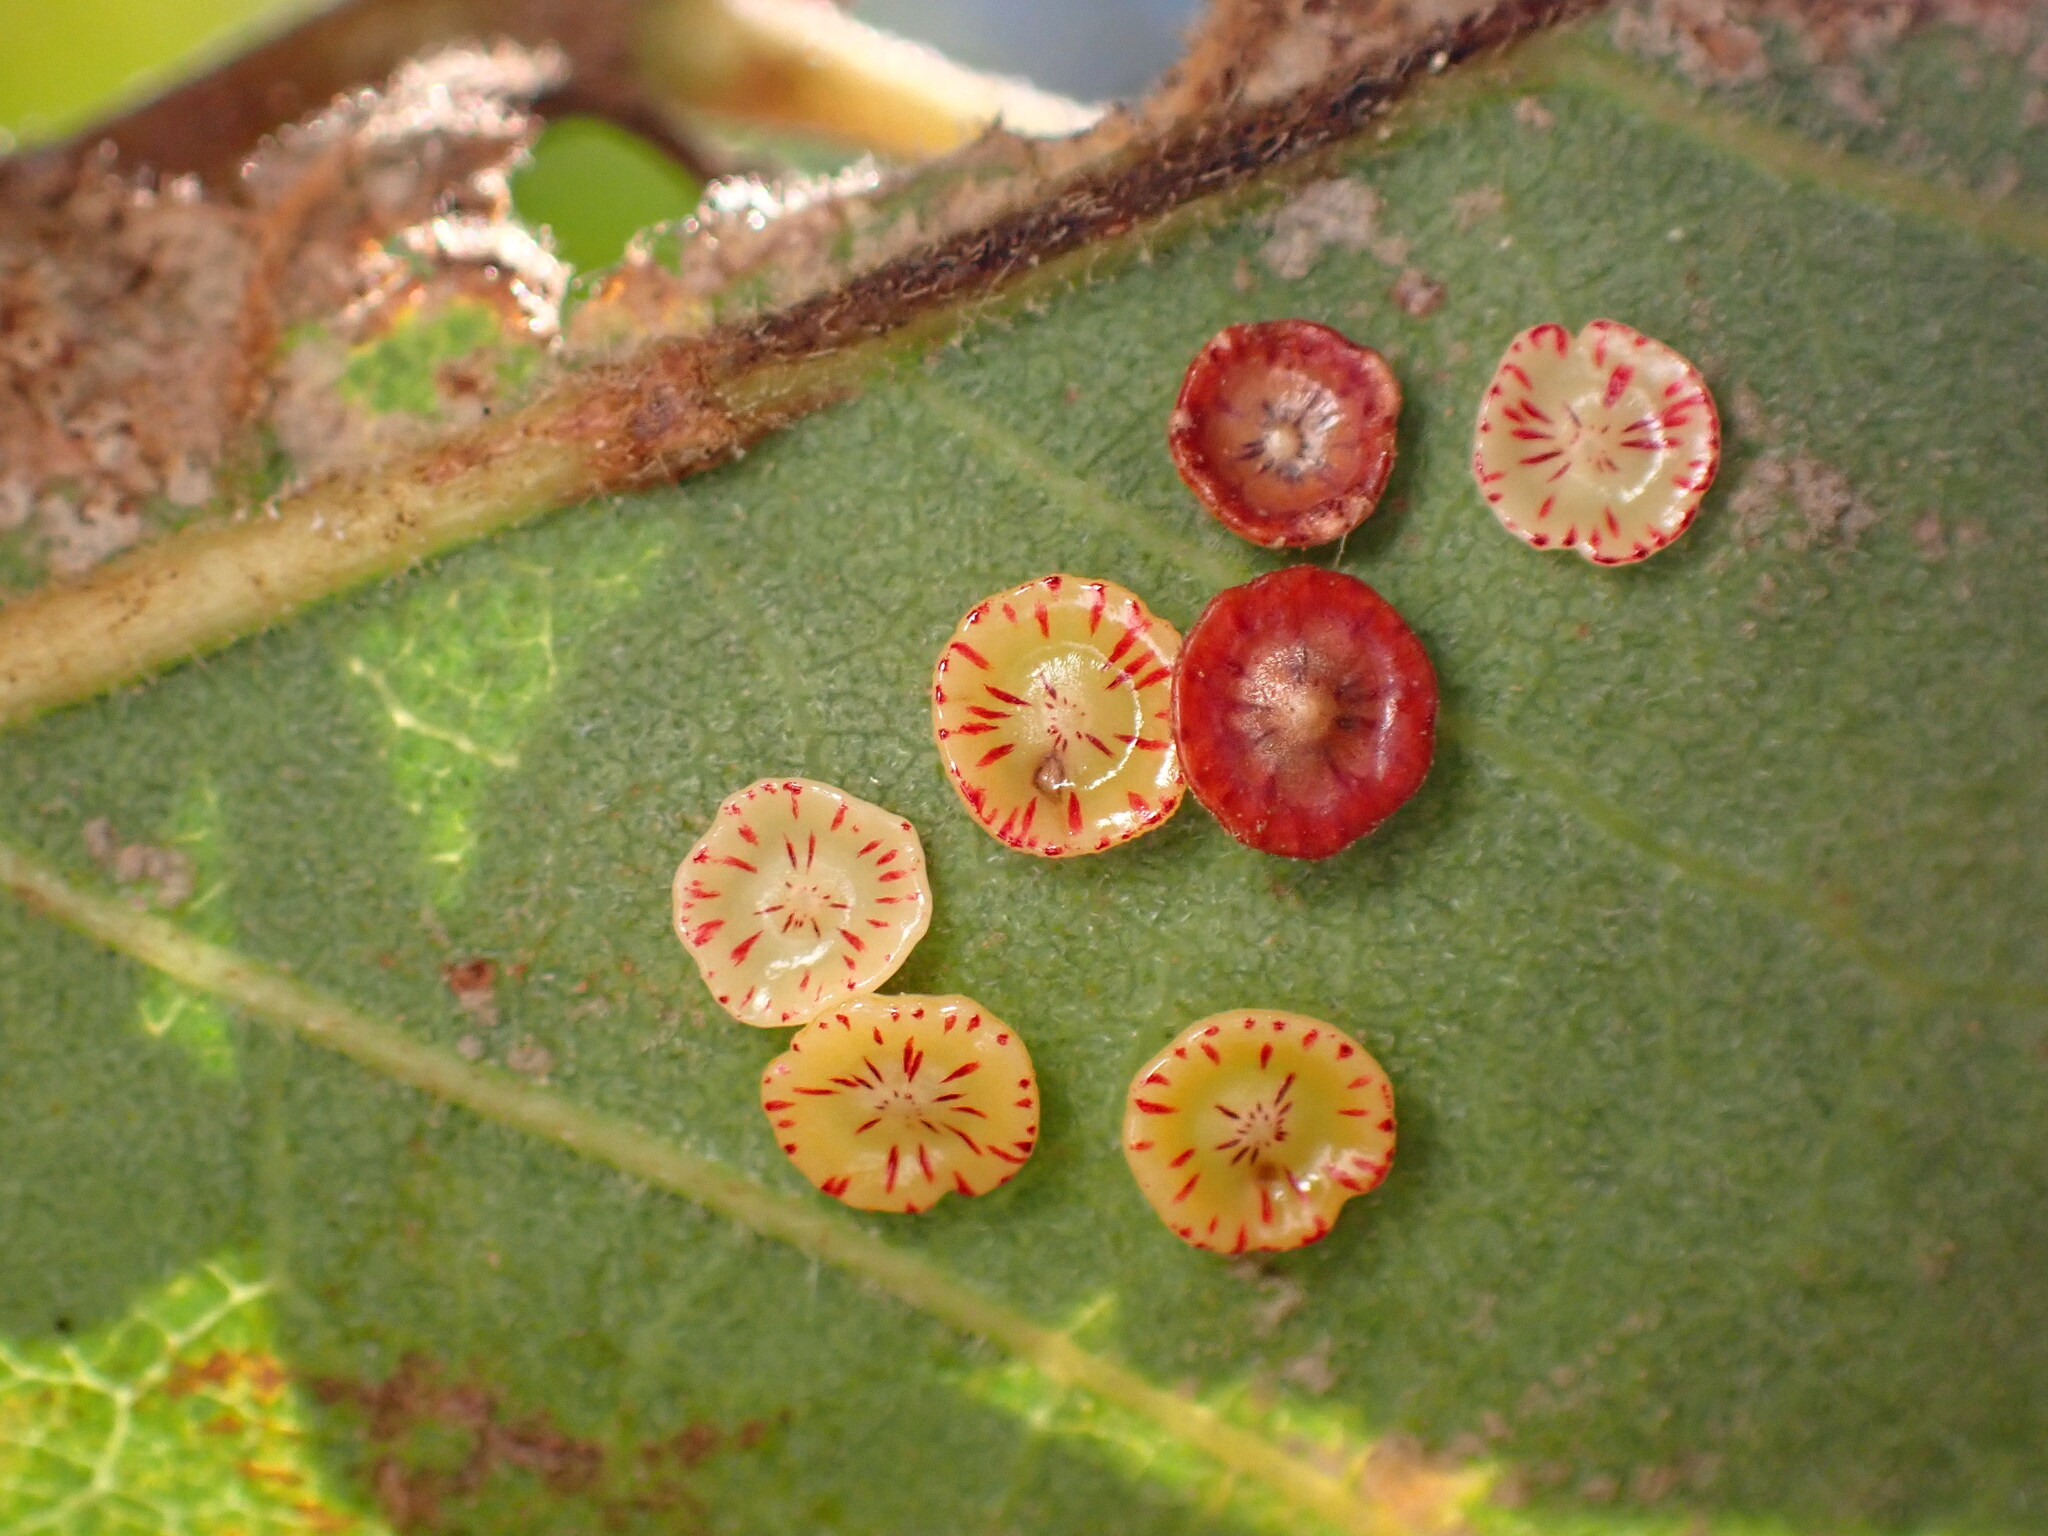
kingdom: Animalia
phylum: Arthropoda
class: Insecta
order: Hymenoptera
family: Cynipidae
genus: Andricus
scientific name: Andricus
